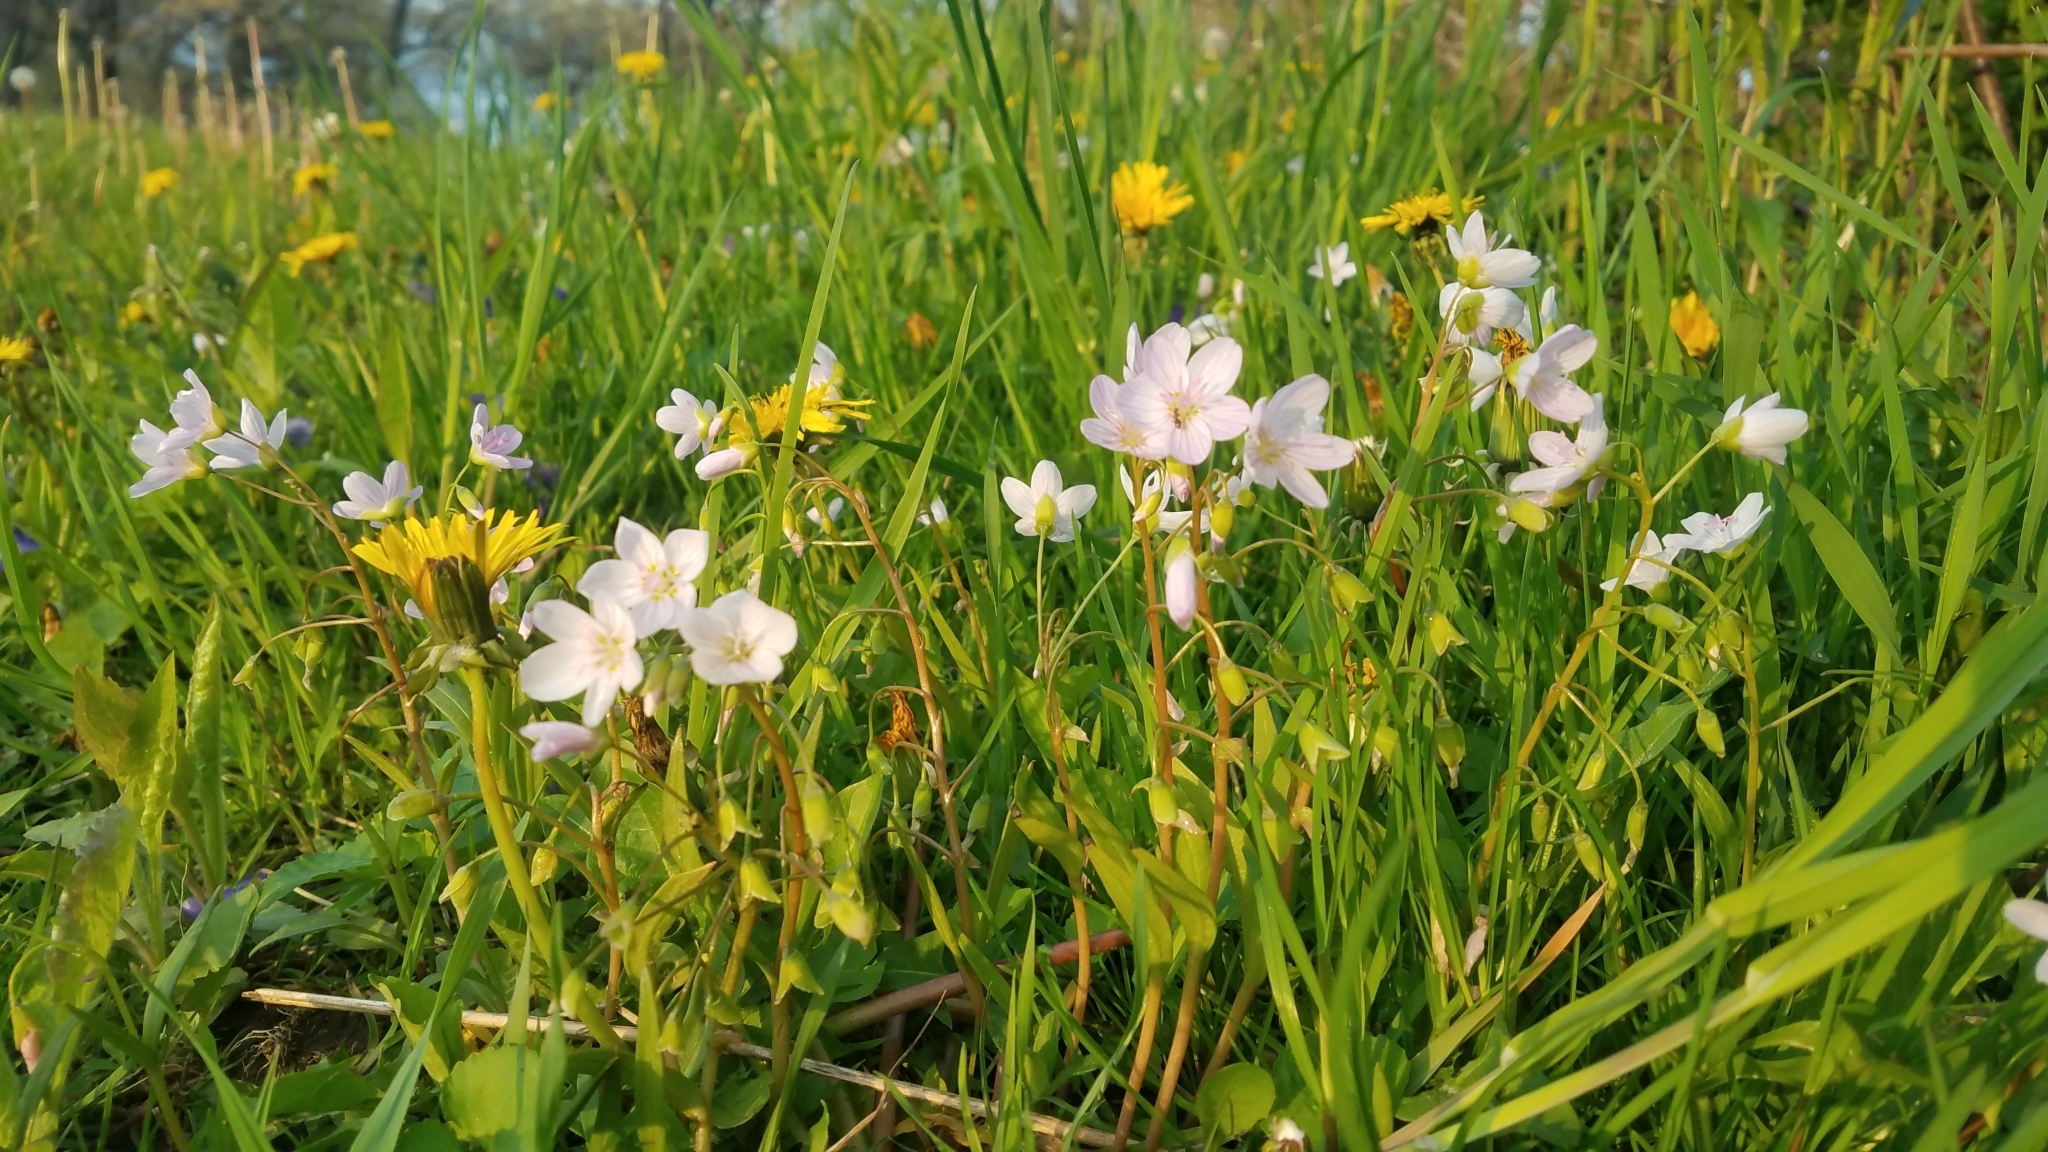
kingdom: Plantae
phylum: Tracheophyta
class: Magnoliopsida
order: Caryophyllales
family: Montiaceae
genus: Claytonia
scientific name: Claytonia virginica
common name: Virginia springbeauty
